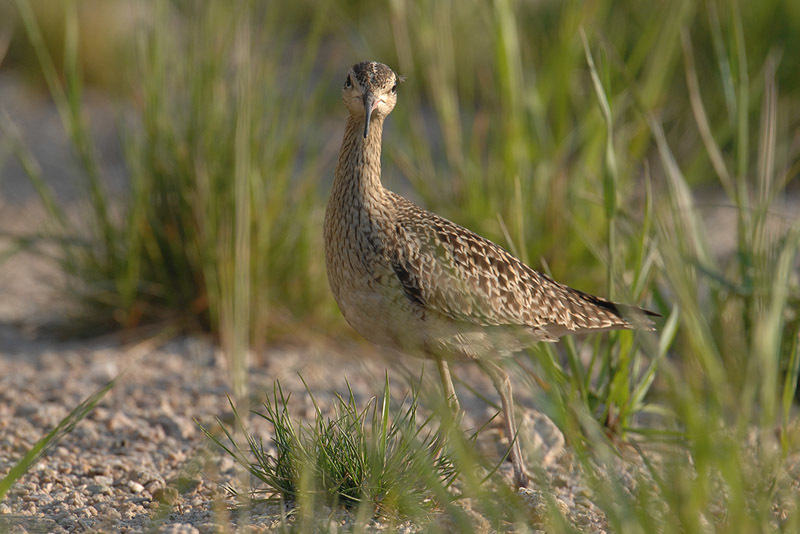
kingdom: Animalia
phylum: Chordata
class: Aves
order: Charadriiformes
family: Scolopacidae
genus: Numenius
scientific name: Numenius minutus
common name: Little curlew
